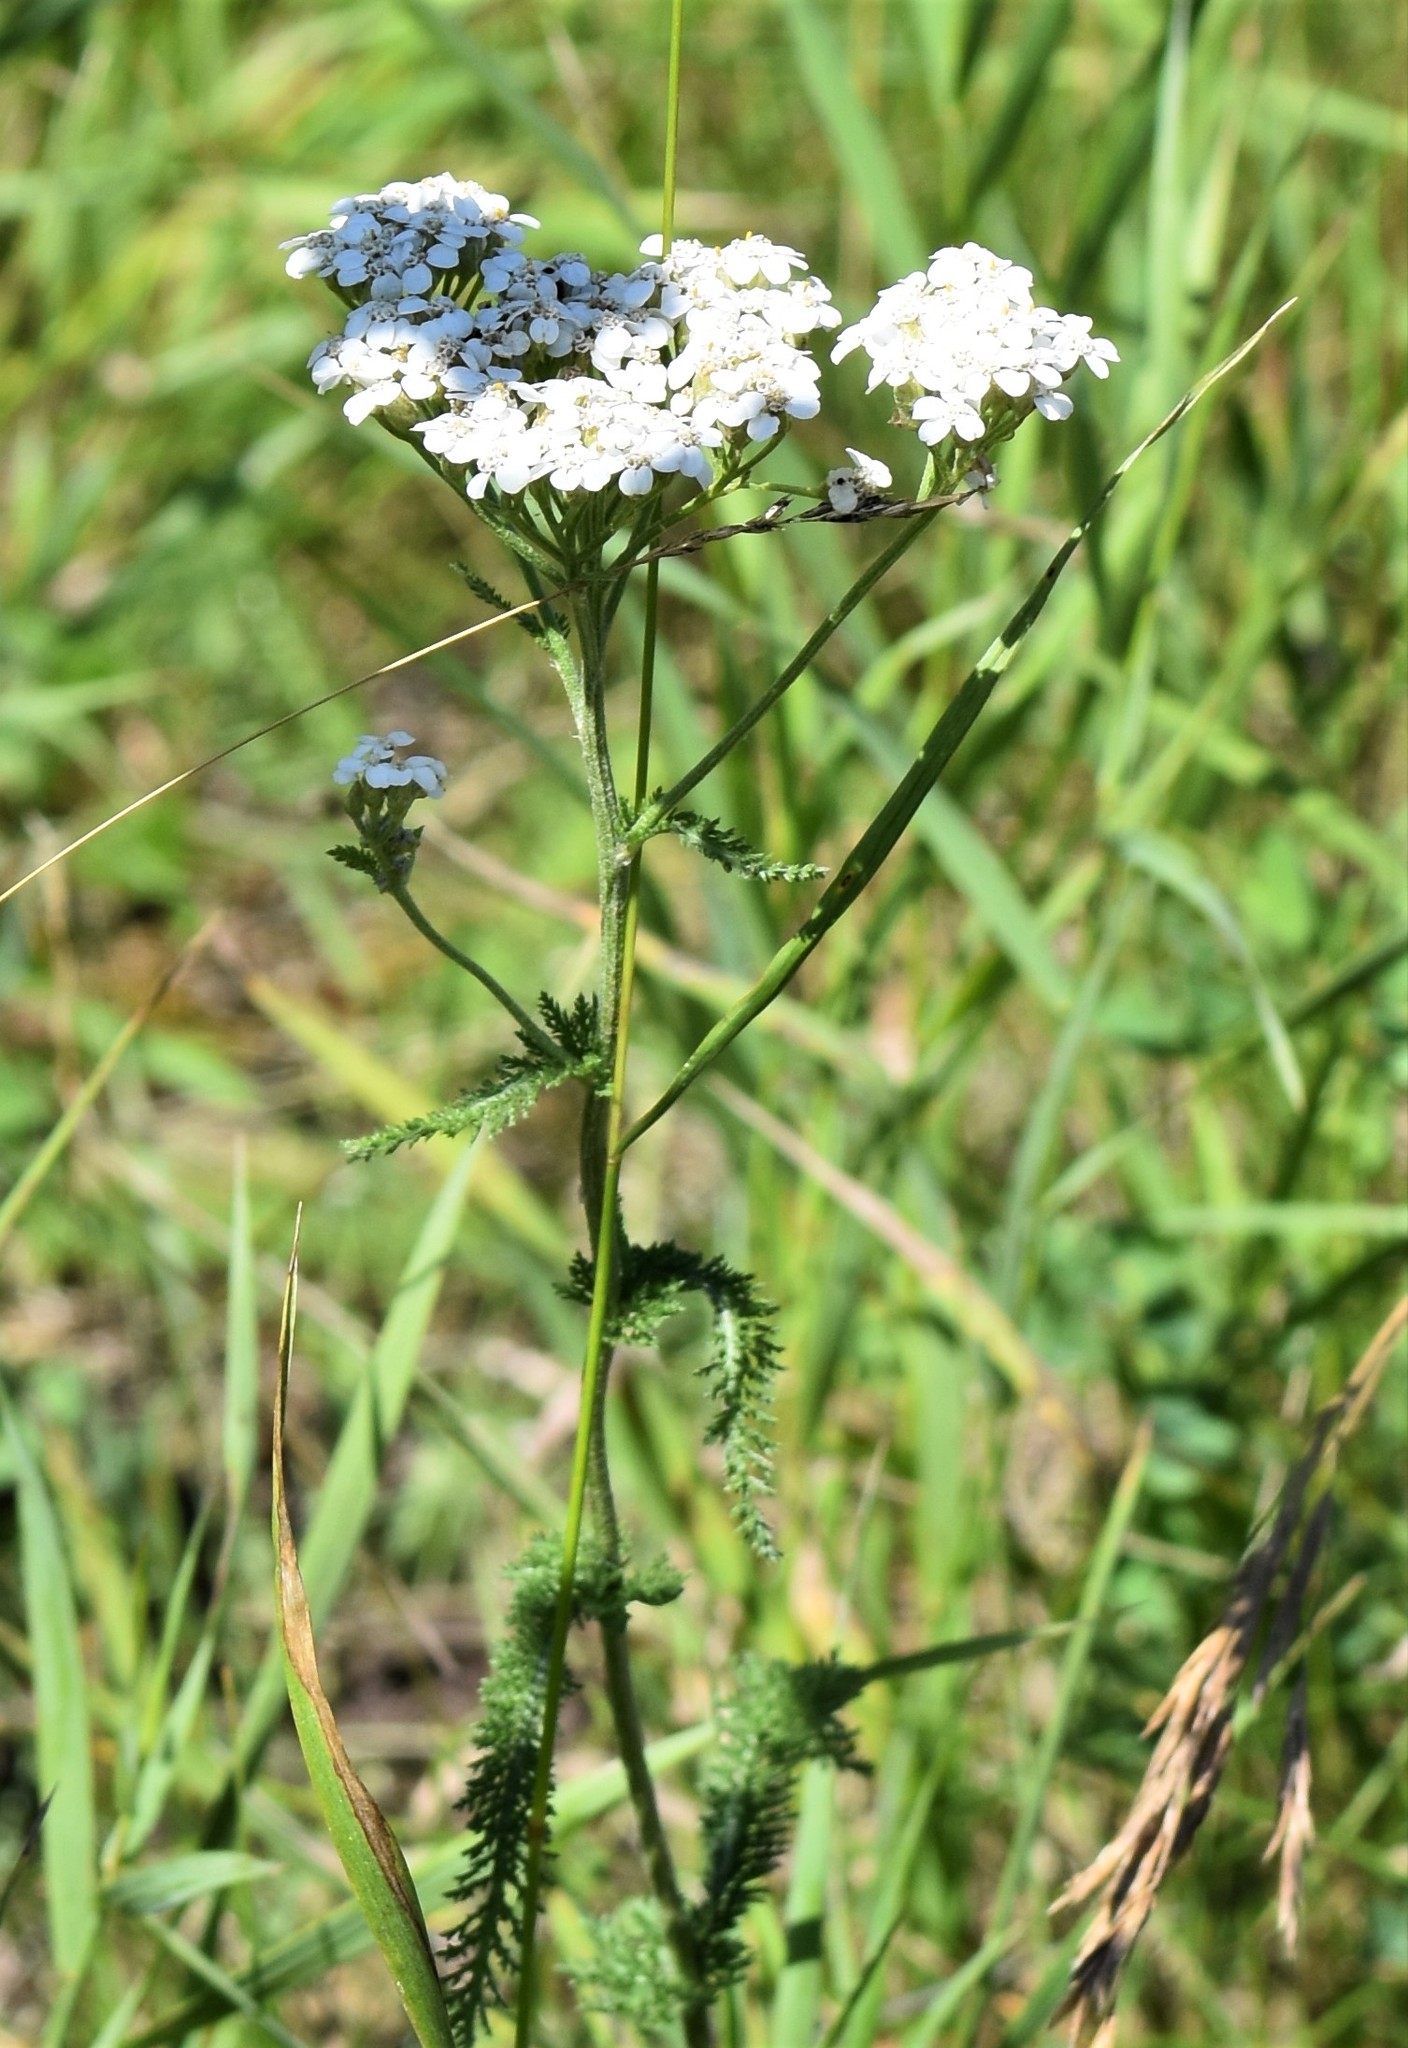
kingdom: Plantae
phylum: Tracheophyta
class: Magnoliopsida
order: Asterales
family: Asteraceae
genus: Achillea
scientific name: Achillea millefolium
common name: Yarrow
